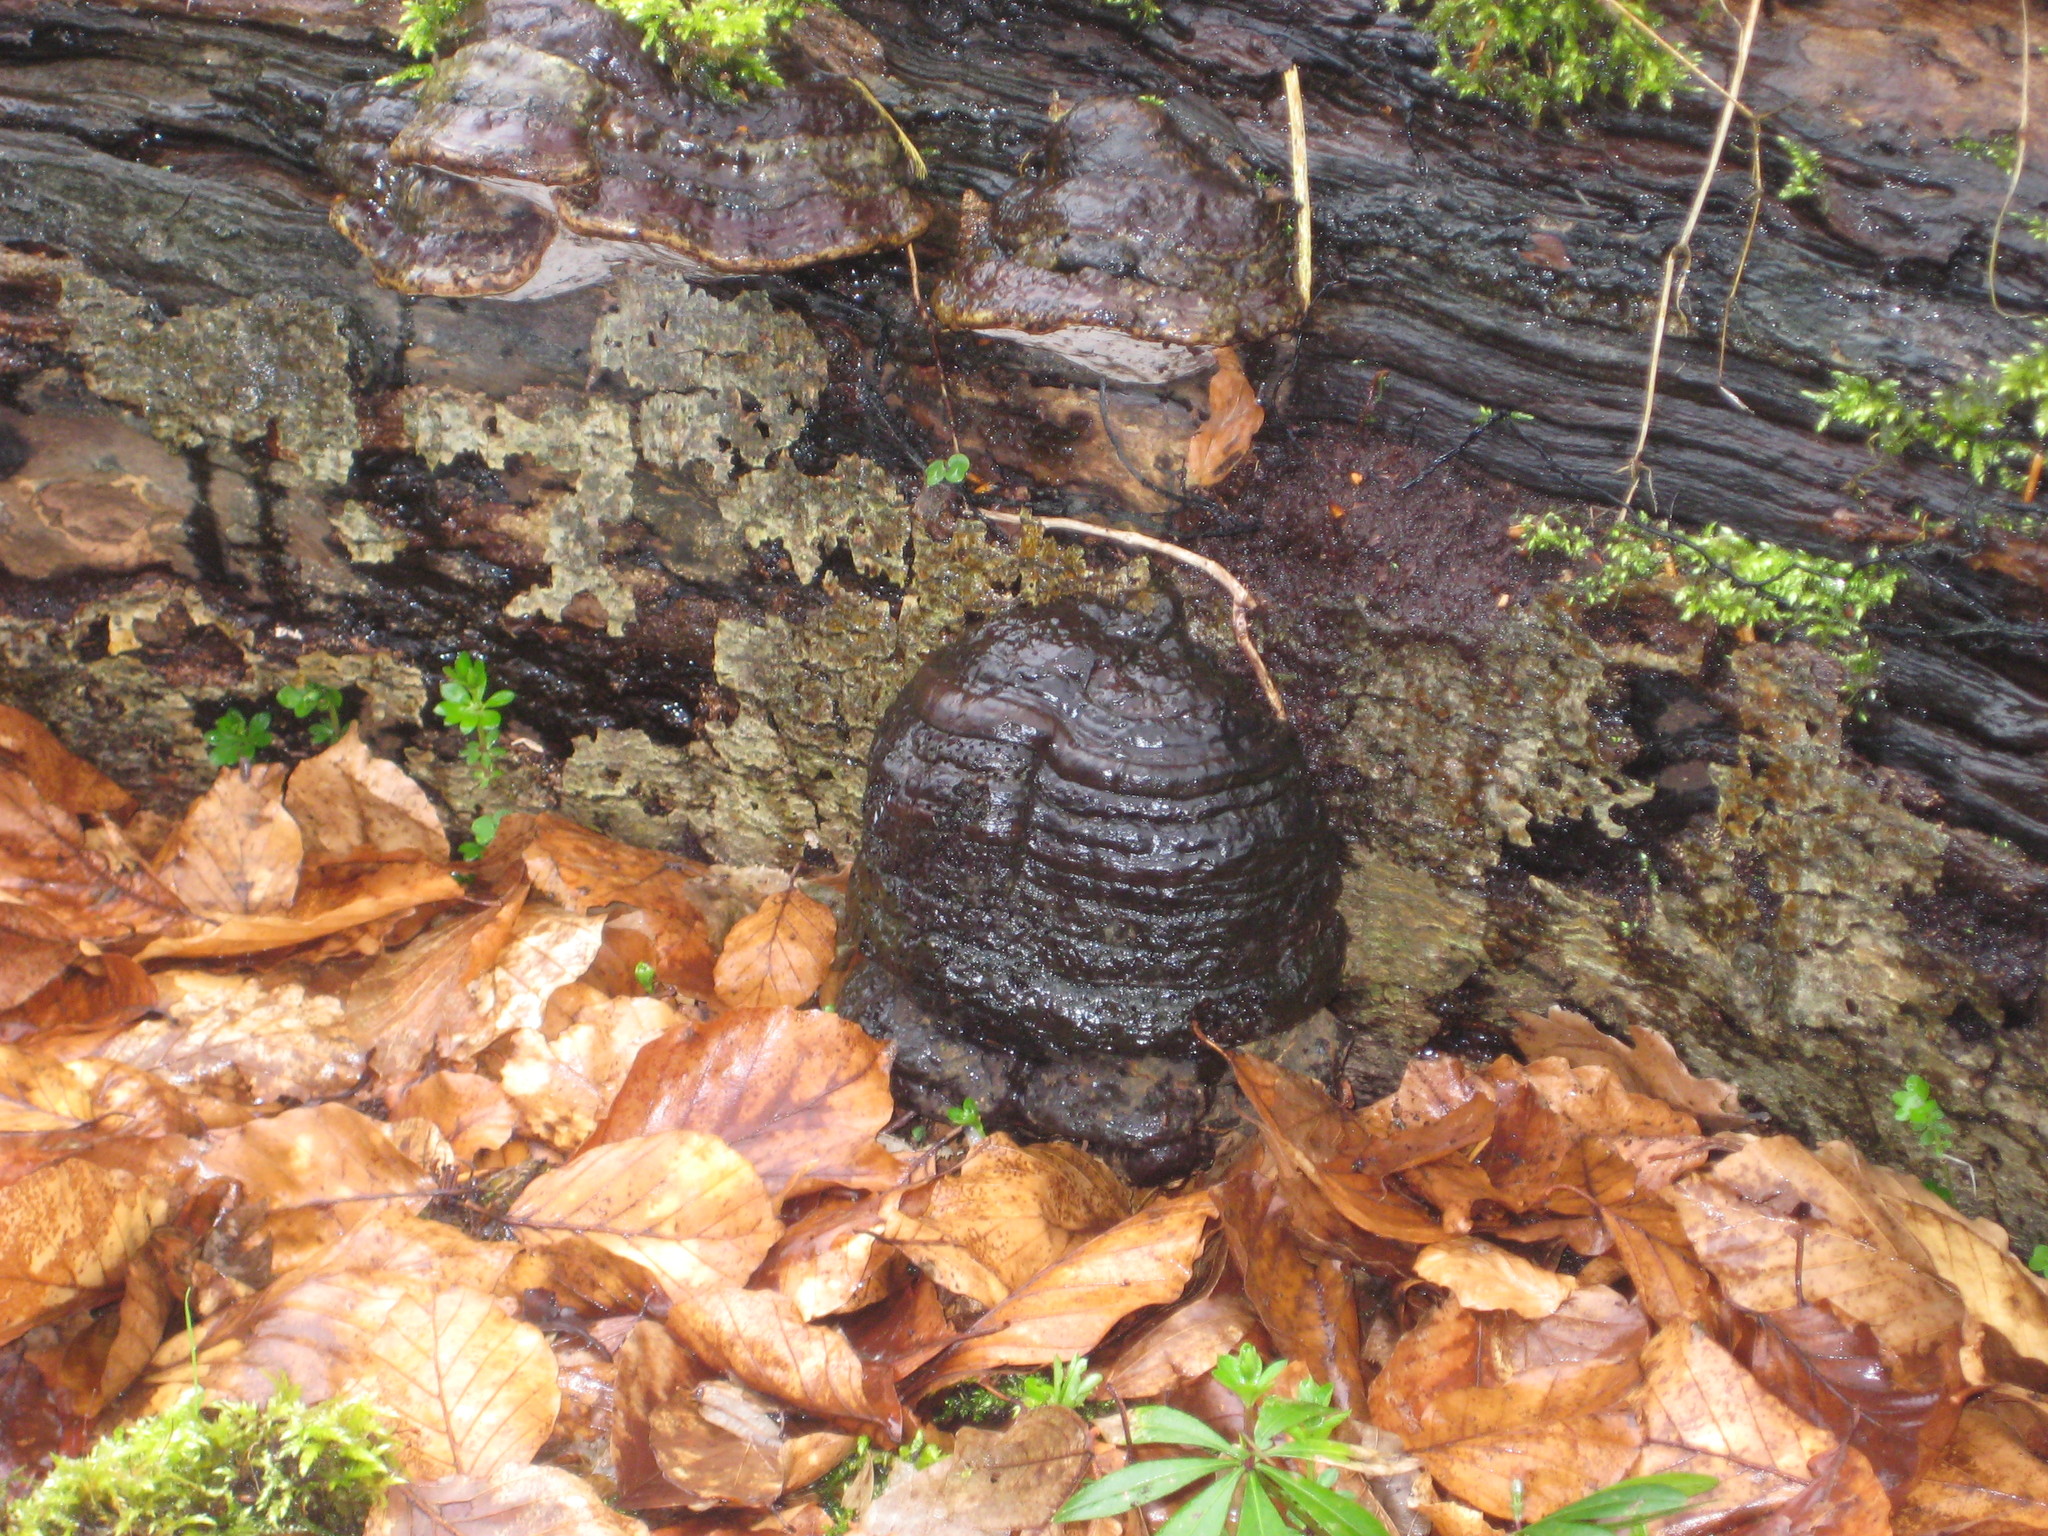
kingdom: Fungi
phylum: Basidiomycota
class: Agaricomycetes
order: Polyporales
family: Polyporaceae
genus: Fomes
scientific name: Fomes fomentarius
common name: Hoof fungus
